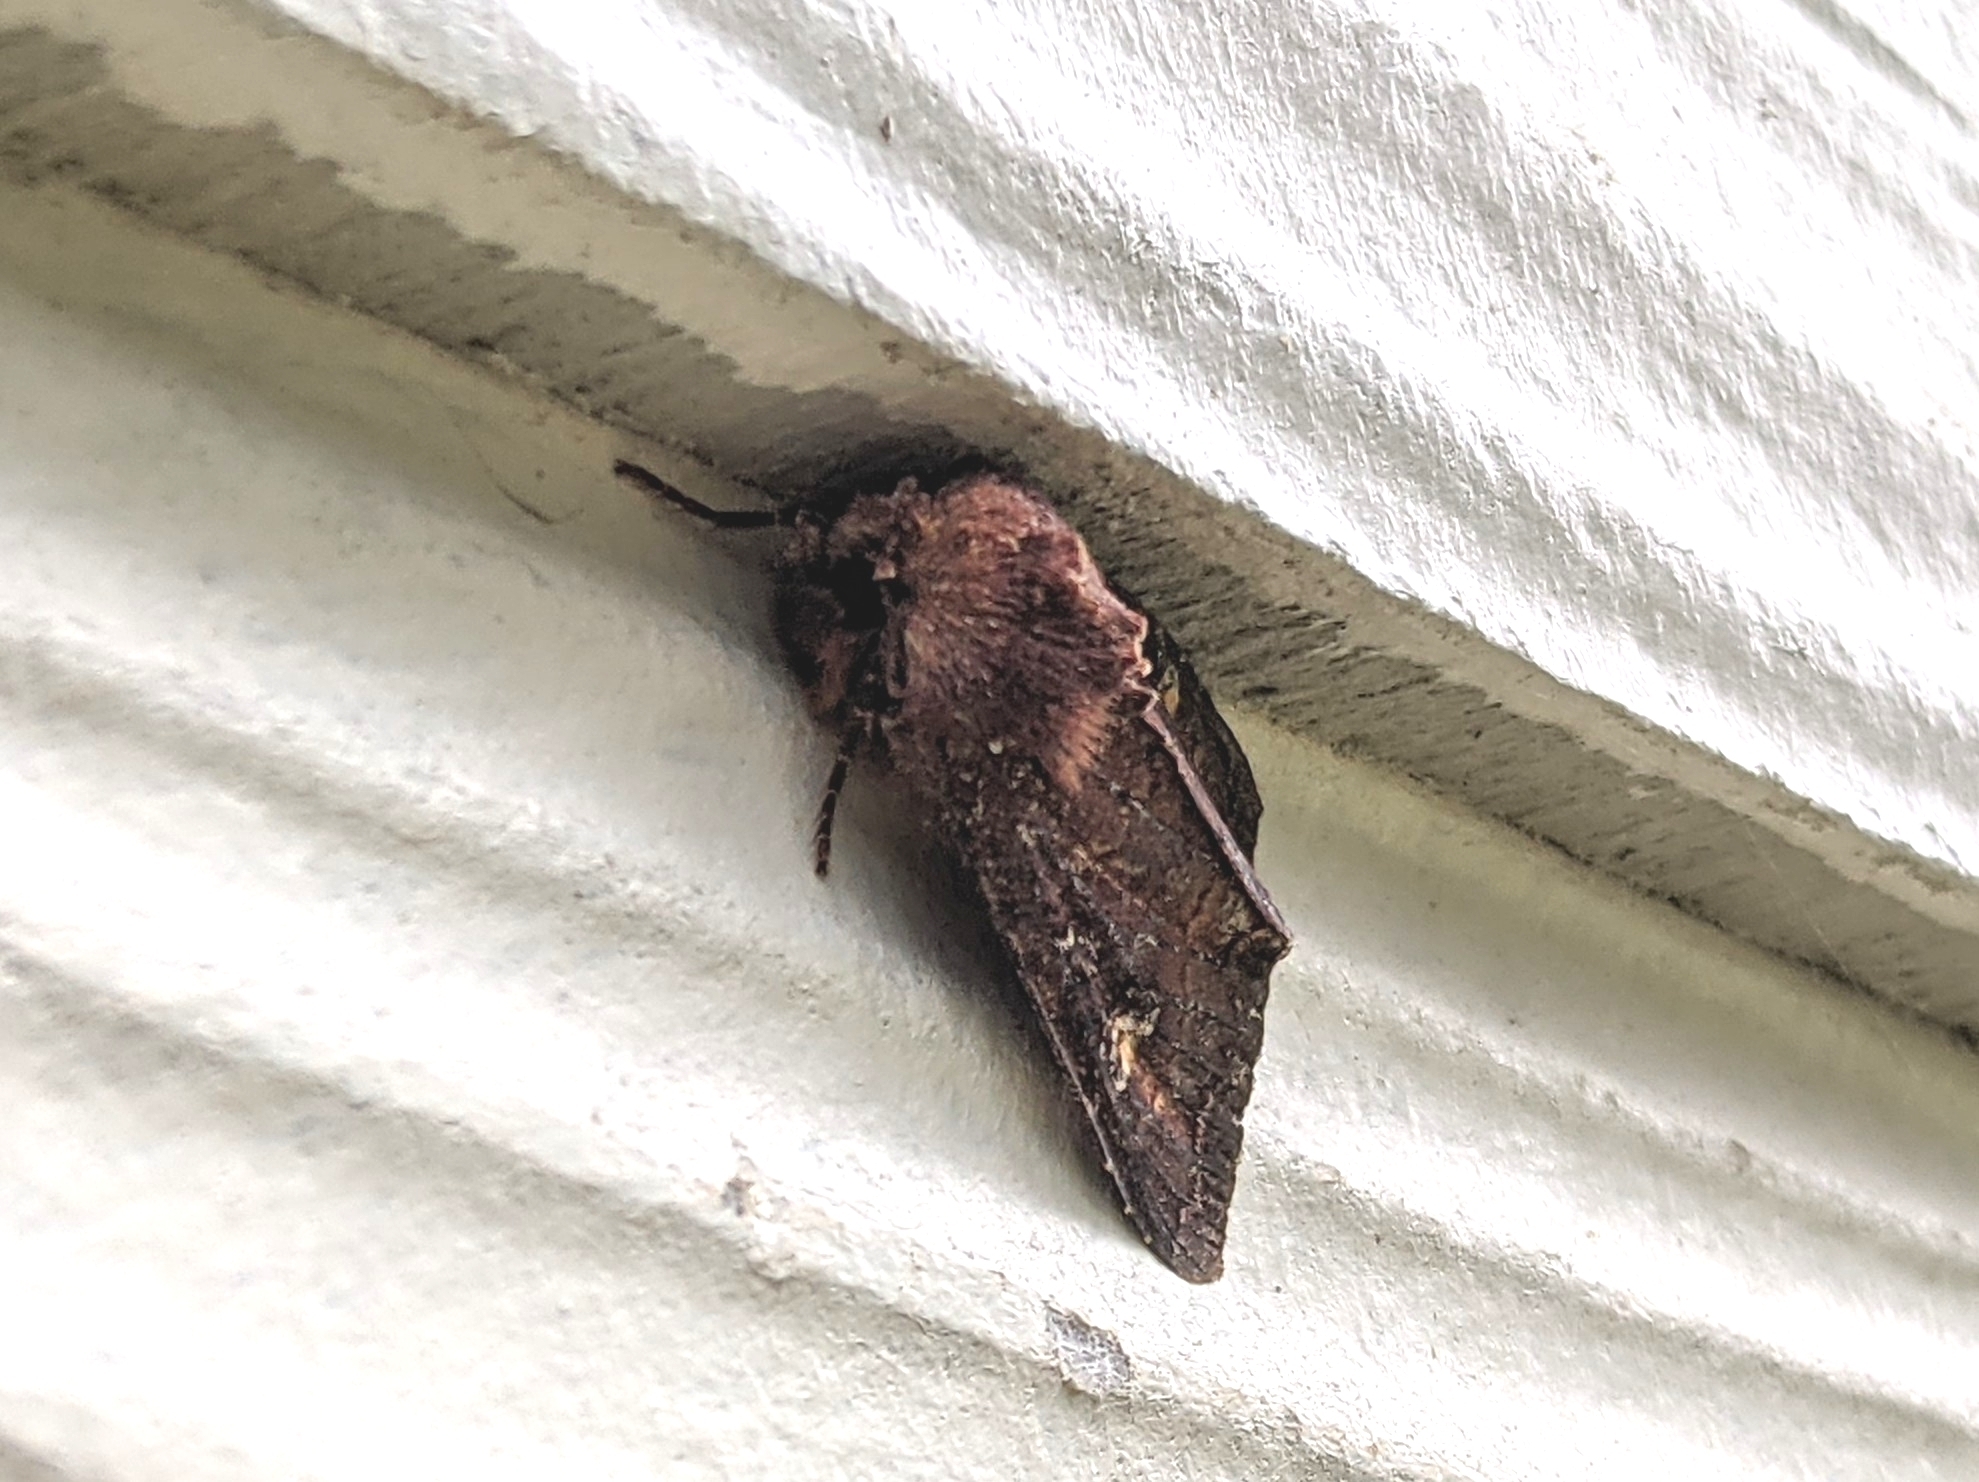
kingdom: Animalia
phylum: Arthropoda
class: Insecta
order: Lepidoptera
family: Noctuidae
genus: Apamea
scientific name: Apamea cogitata
